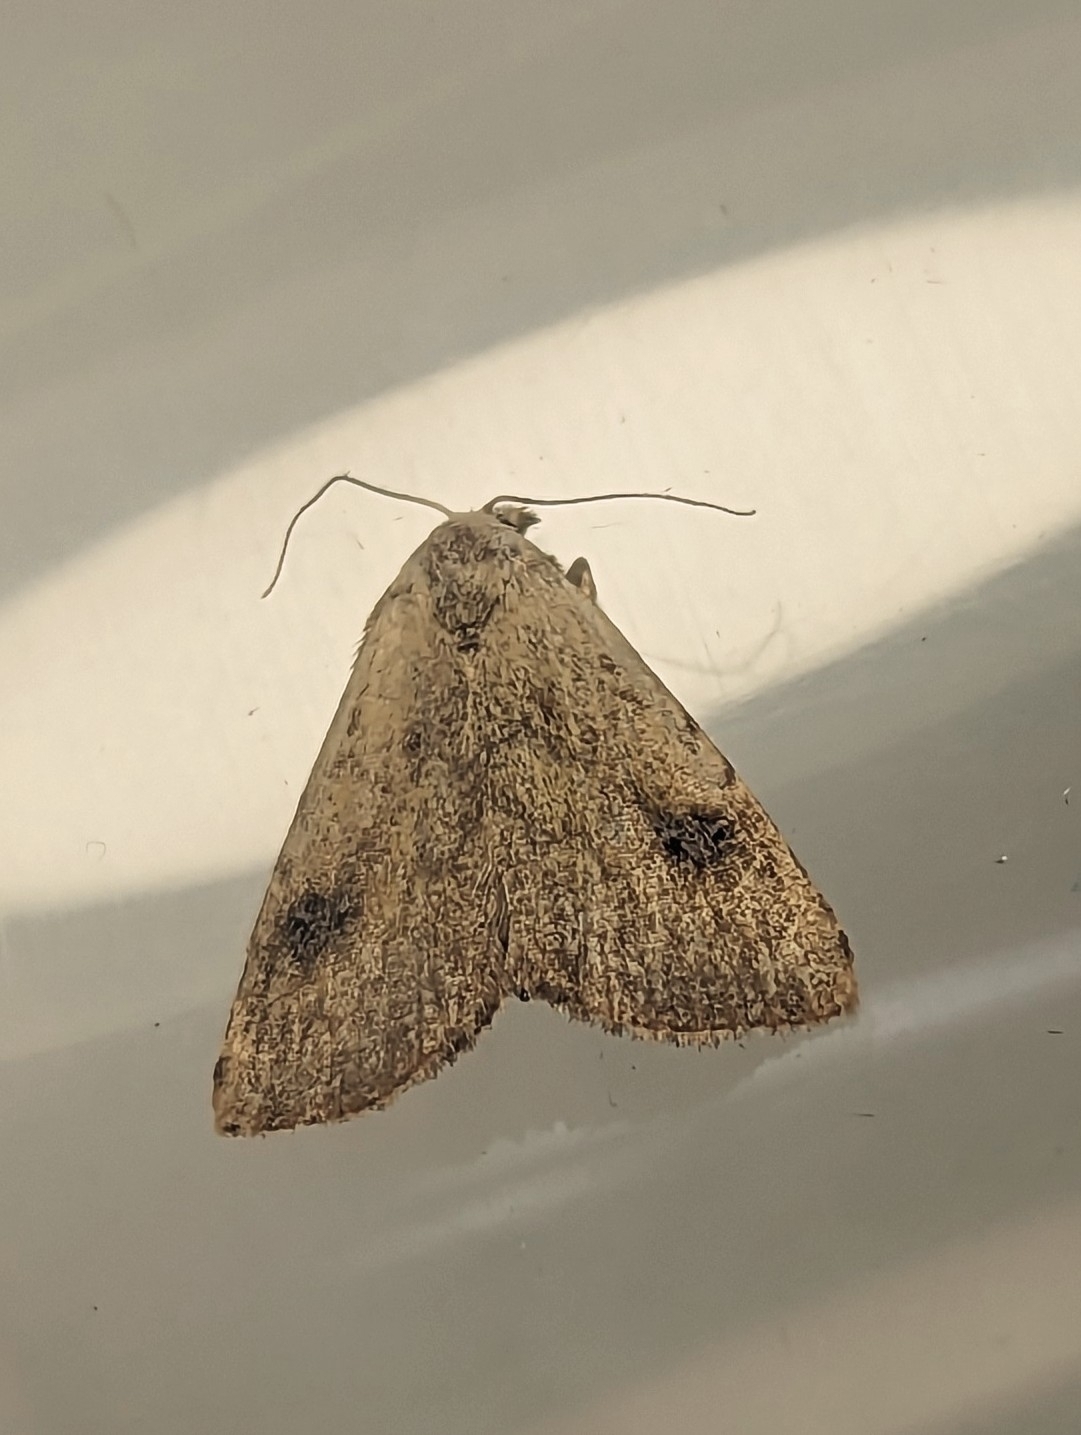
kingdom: Animalia
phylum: Arthropoda
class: Insecta
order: Lepidoptera
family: Erebidae
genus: Rivula
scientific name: Rivula sericealis
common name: Straw dot
